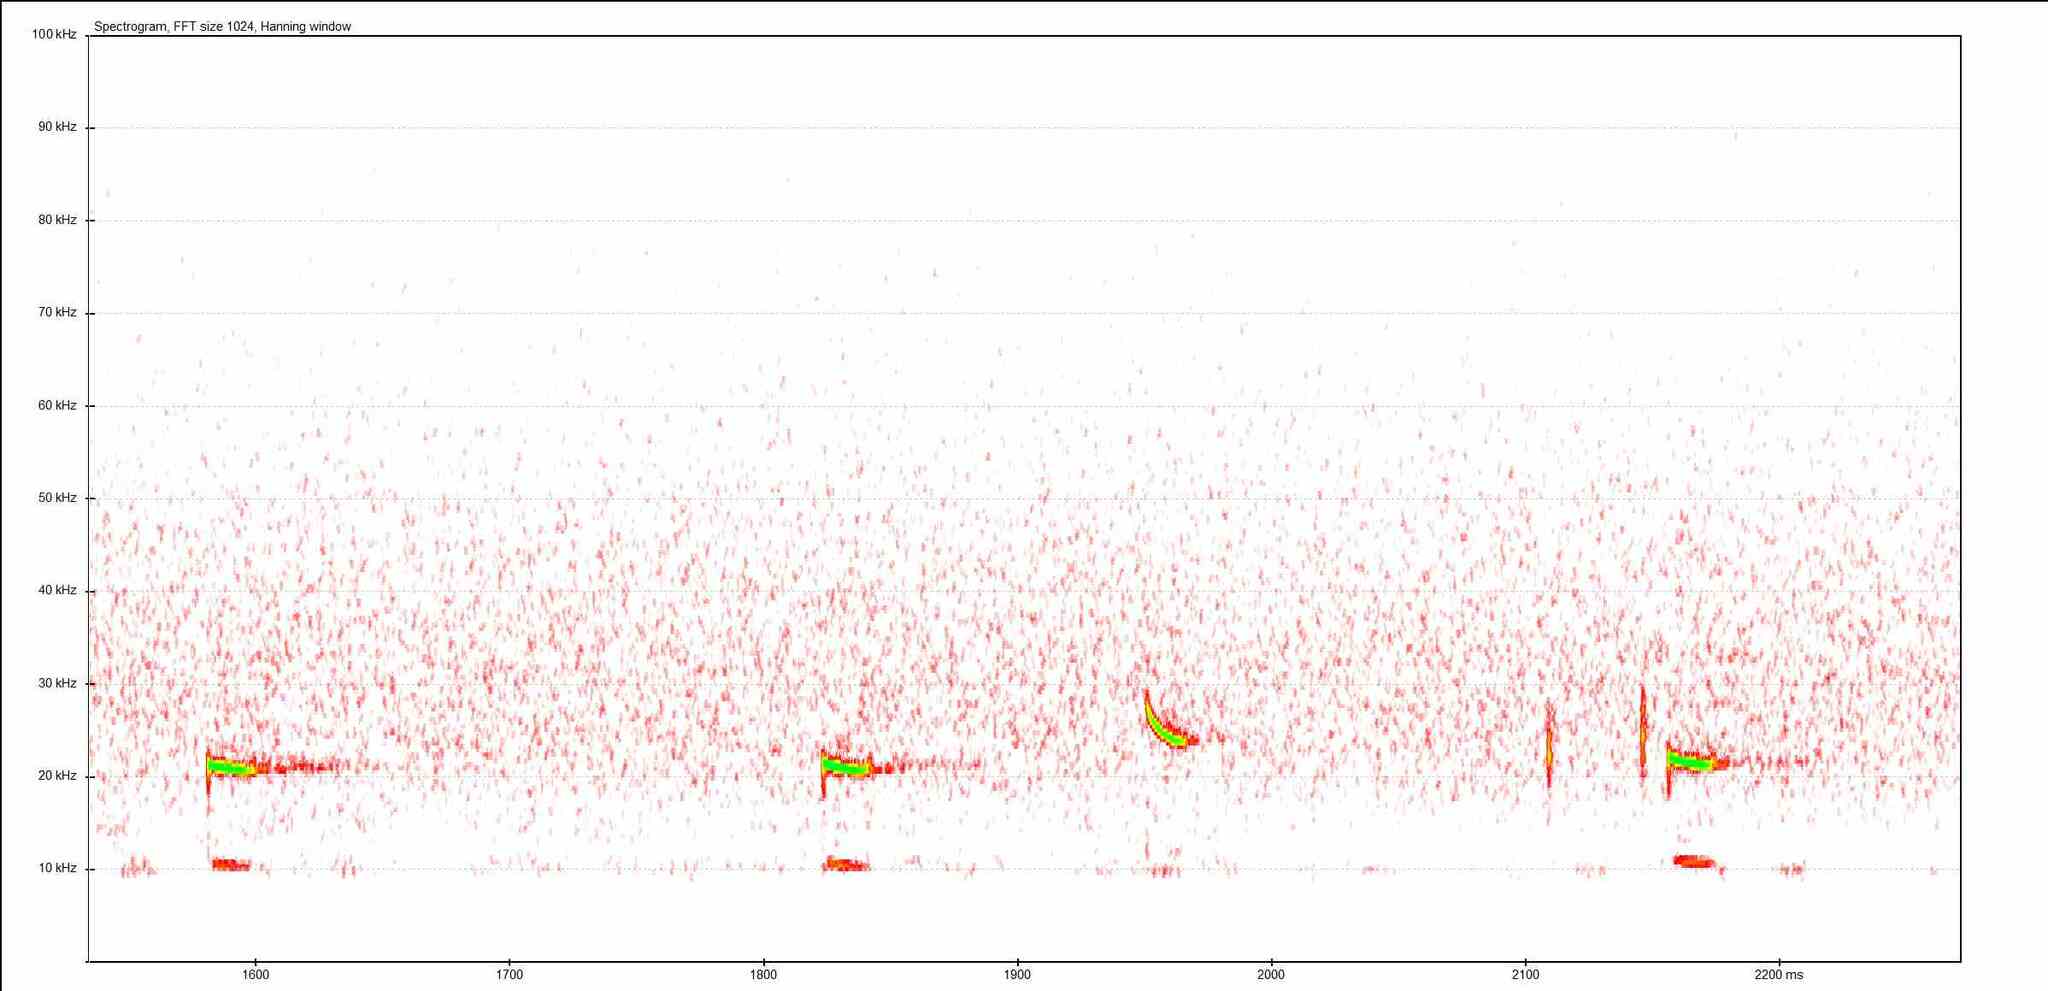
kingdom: Animalia
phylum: Chordata
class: Mammalia
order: Chiroptera
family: Vespertilionidae
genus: Nyctalus
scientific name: Nyctalus leisleri
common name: Lesser noctule
